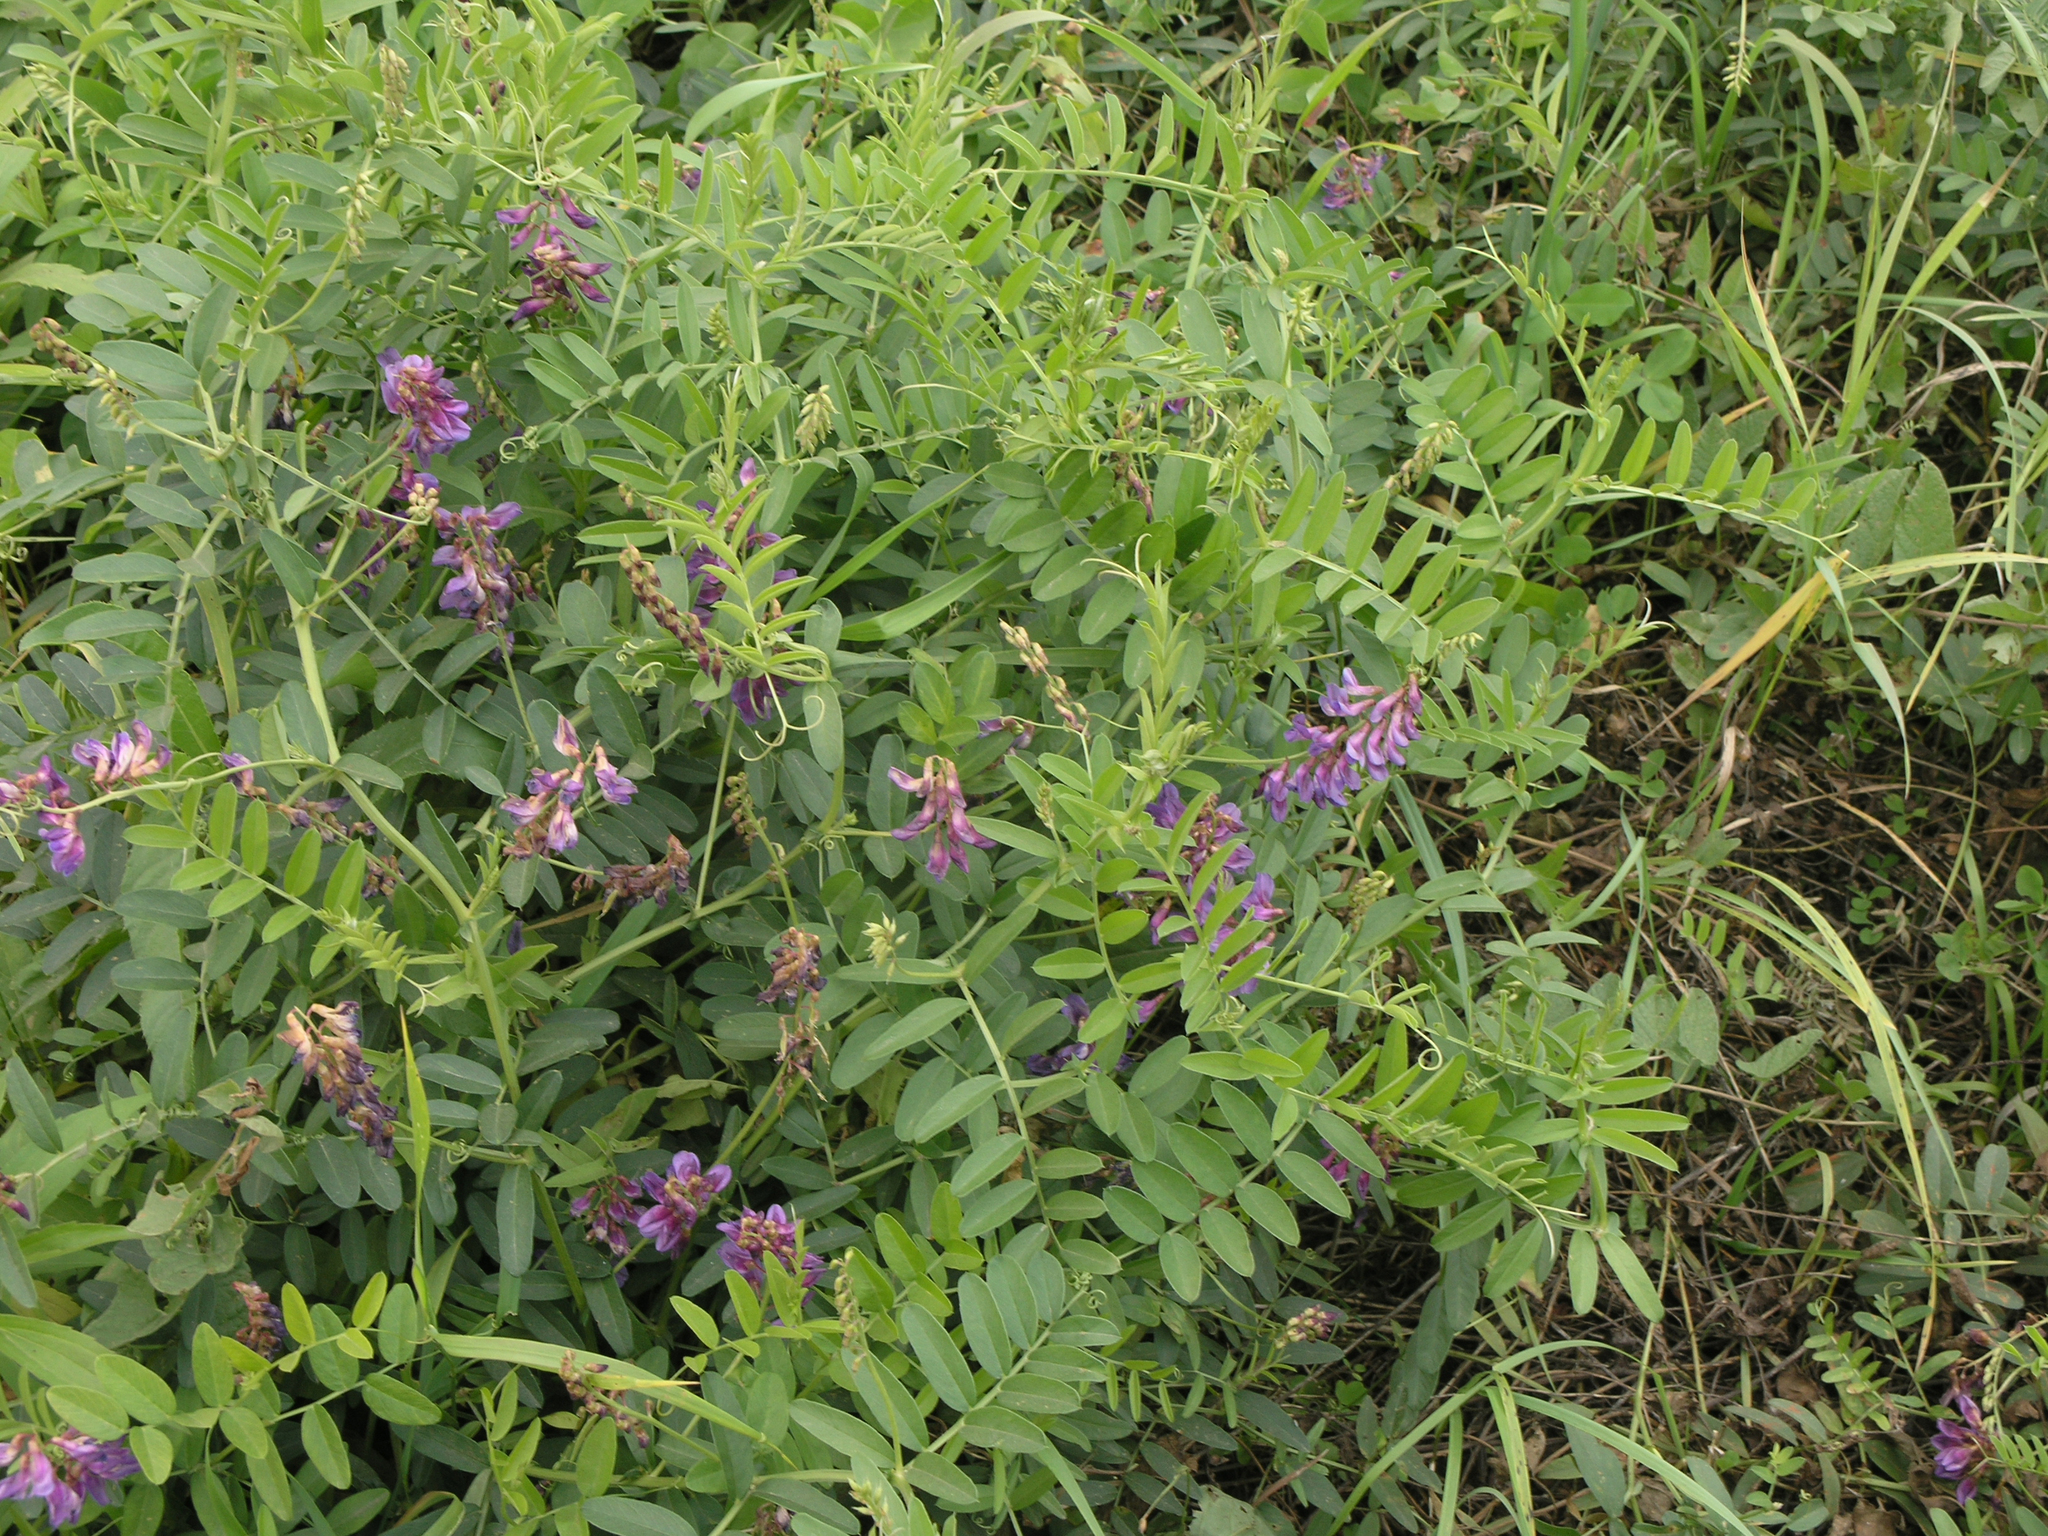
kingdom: Plantae
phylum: Tracheophyta
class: Magnoliopsida
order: Fabales
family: Fabaceae
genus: Vicia
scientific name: Vicia amoena
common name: Cheder ebs
